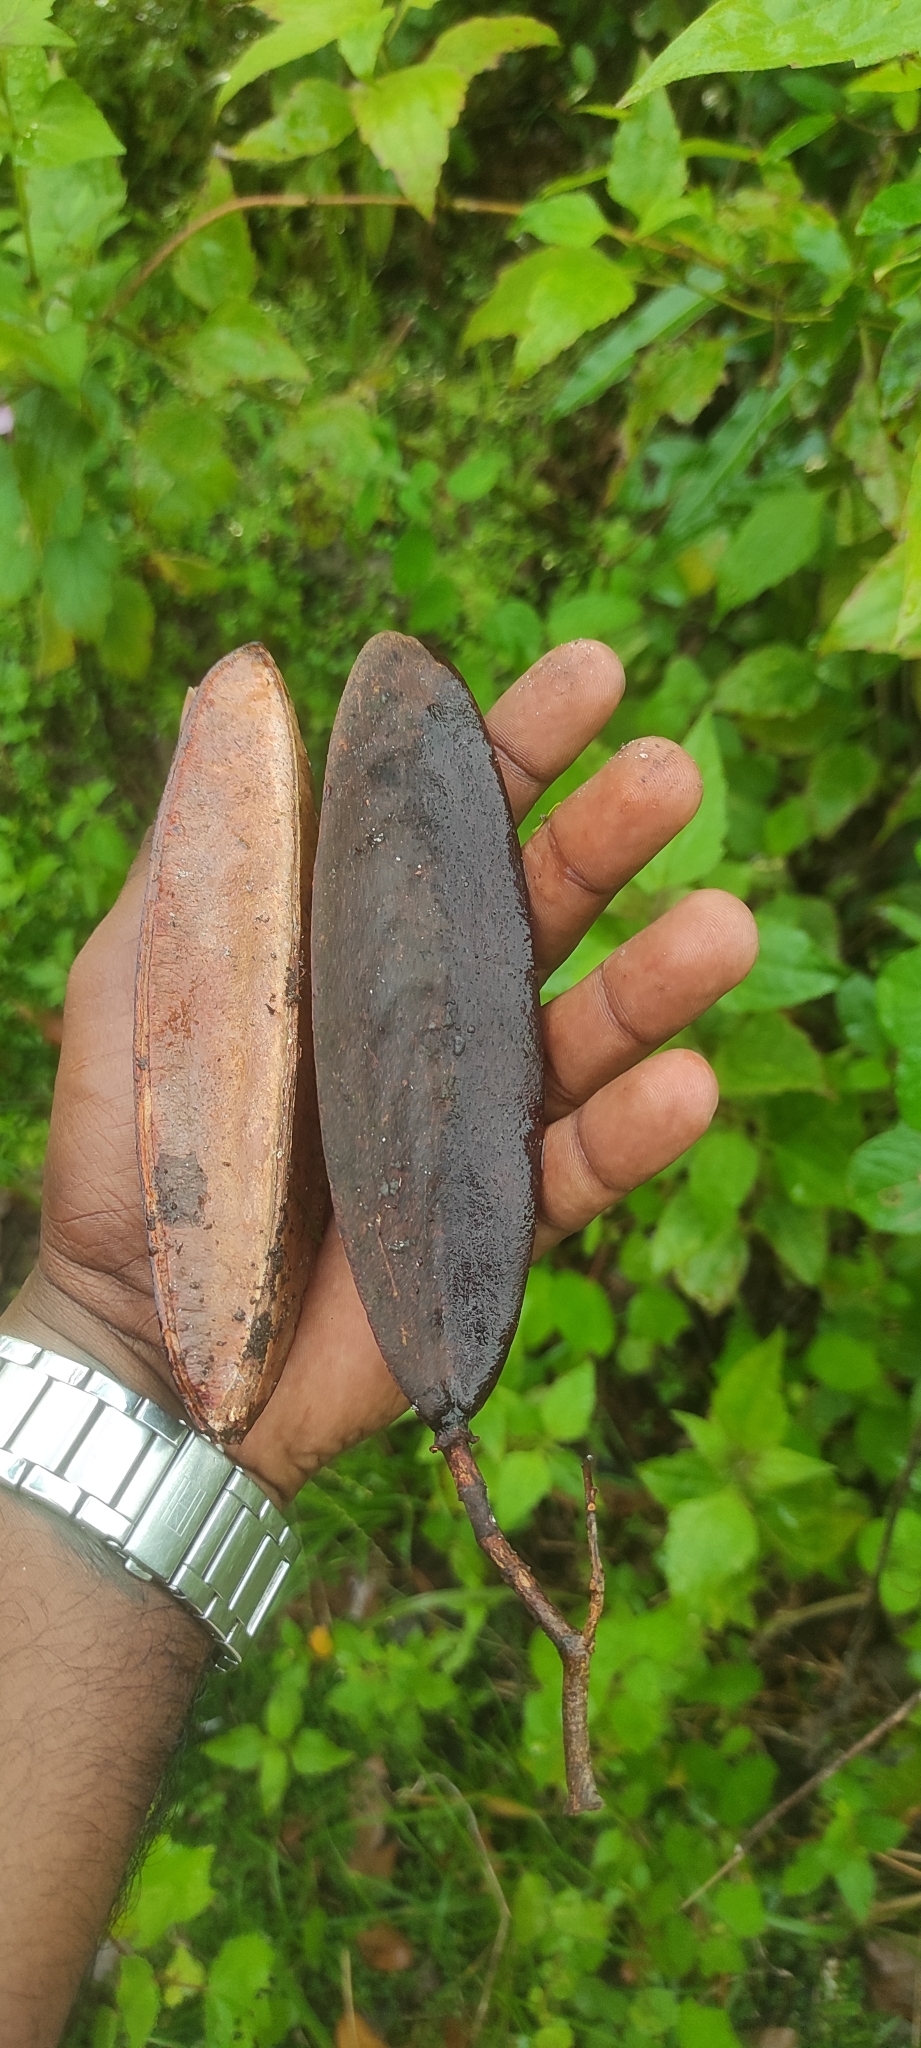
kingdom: Plantae
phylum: Tracheophyta
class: Magnoliopsida
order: Celastrales
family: Celastraceae
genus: Lophopetalum
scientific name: Lophopetalum wightianum
